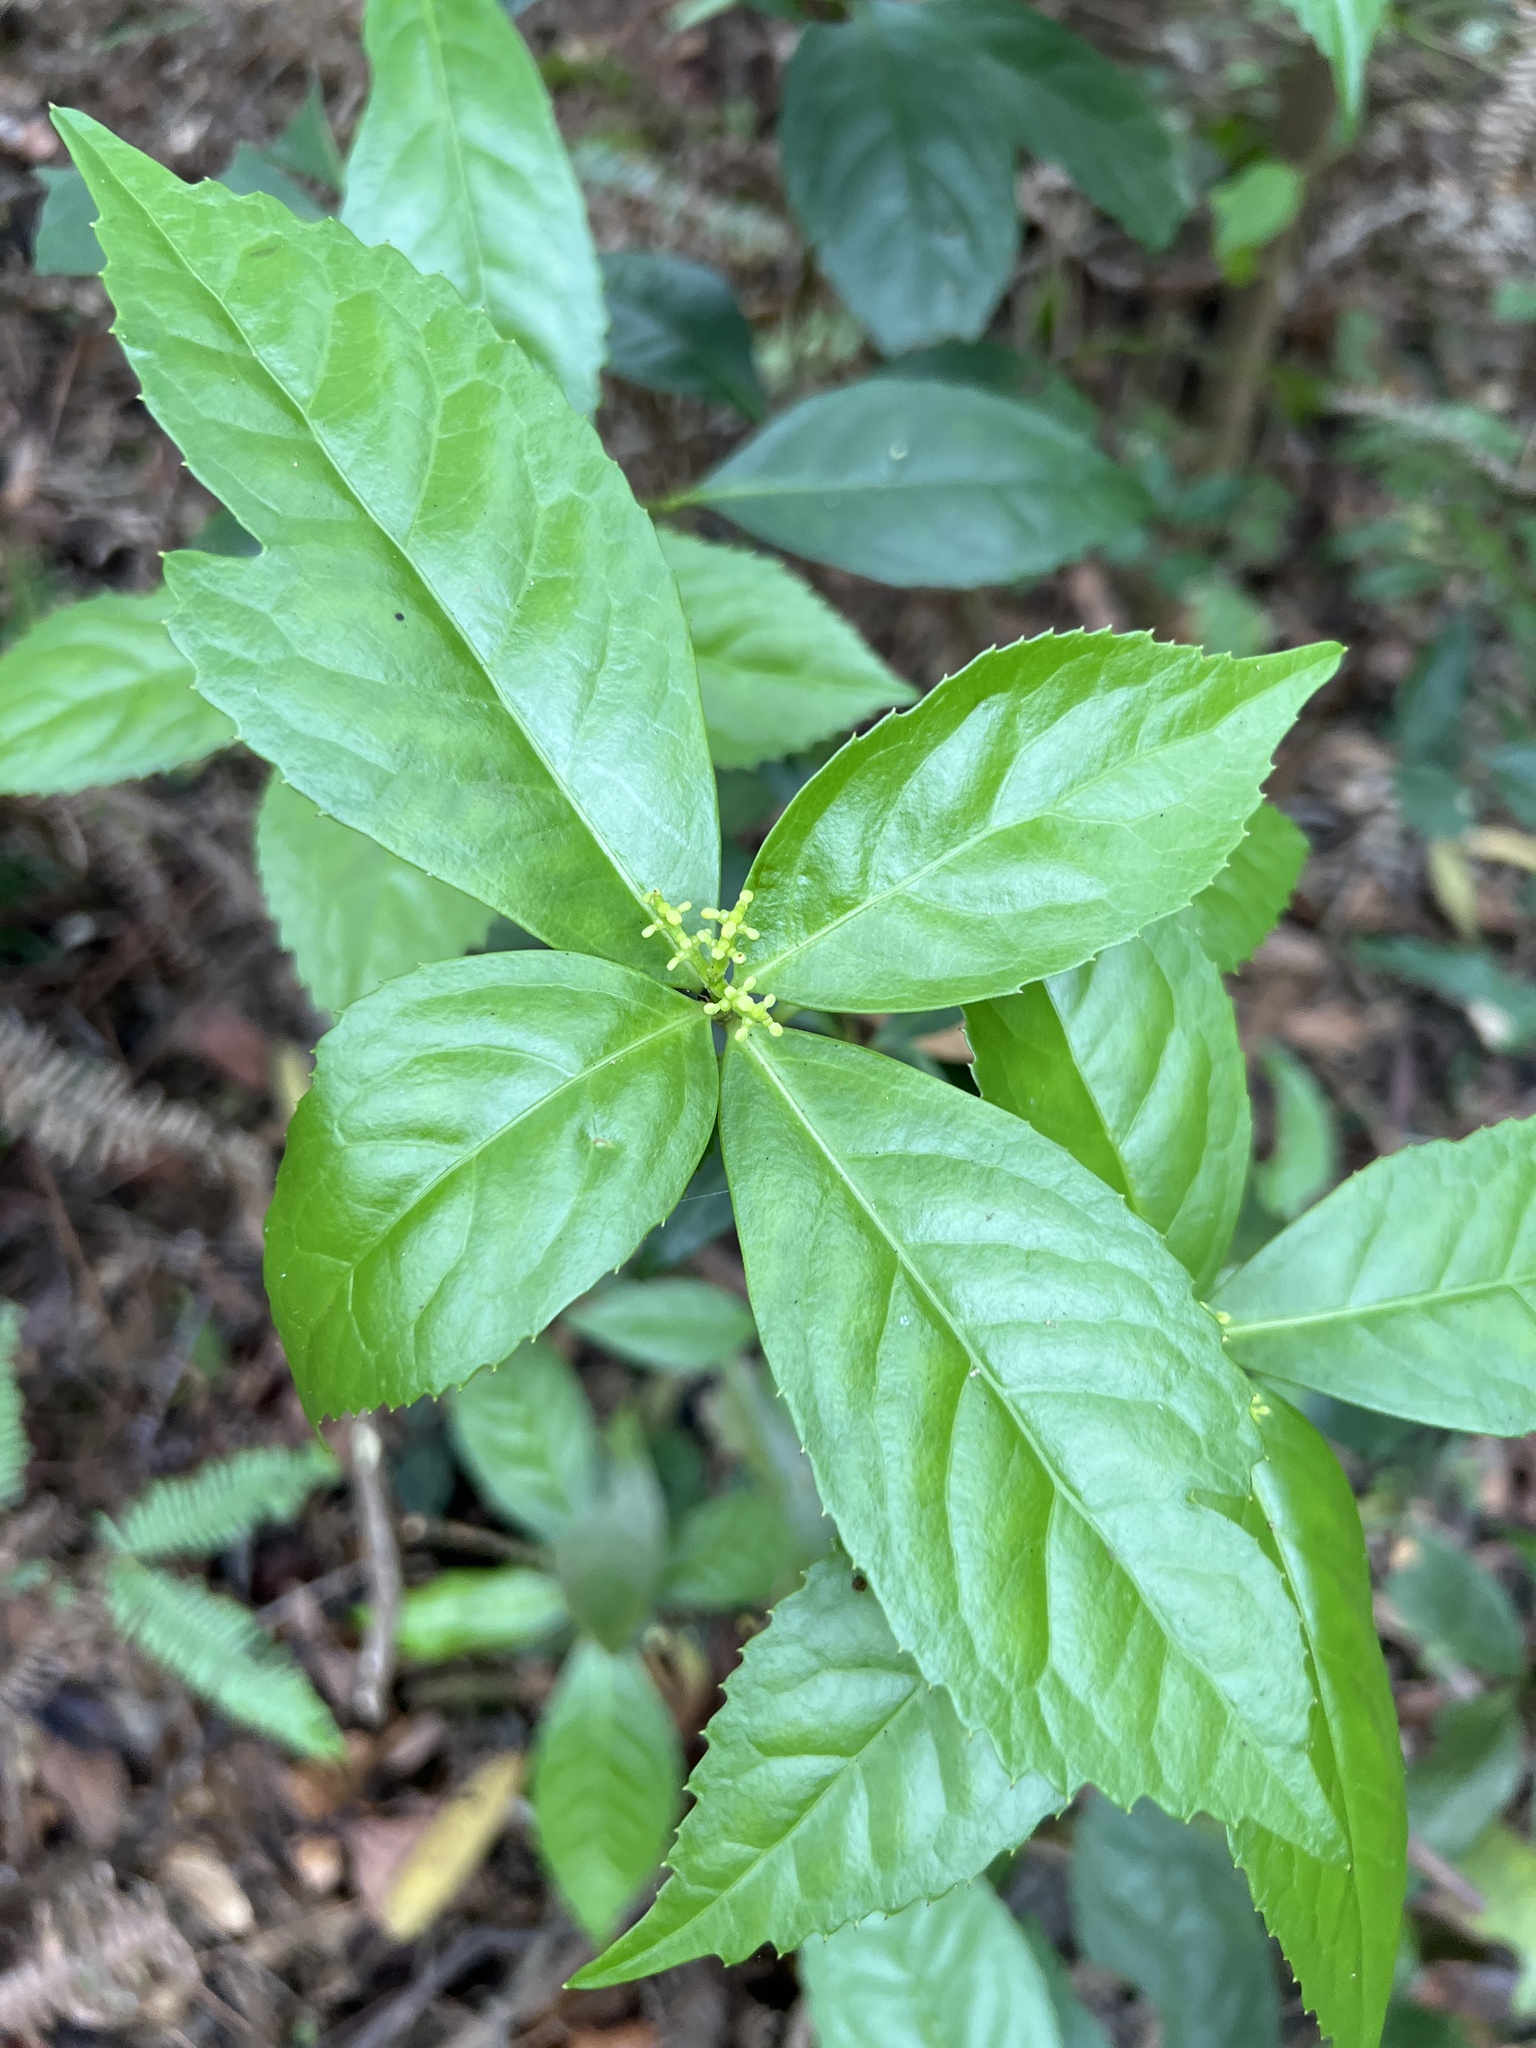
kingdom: Plantae
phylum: Tracheophyta
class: Magnoliopsida
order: Chloranthales
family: Chloranthaceae
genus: Sarcandra
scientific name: Sarcandra glabra
